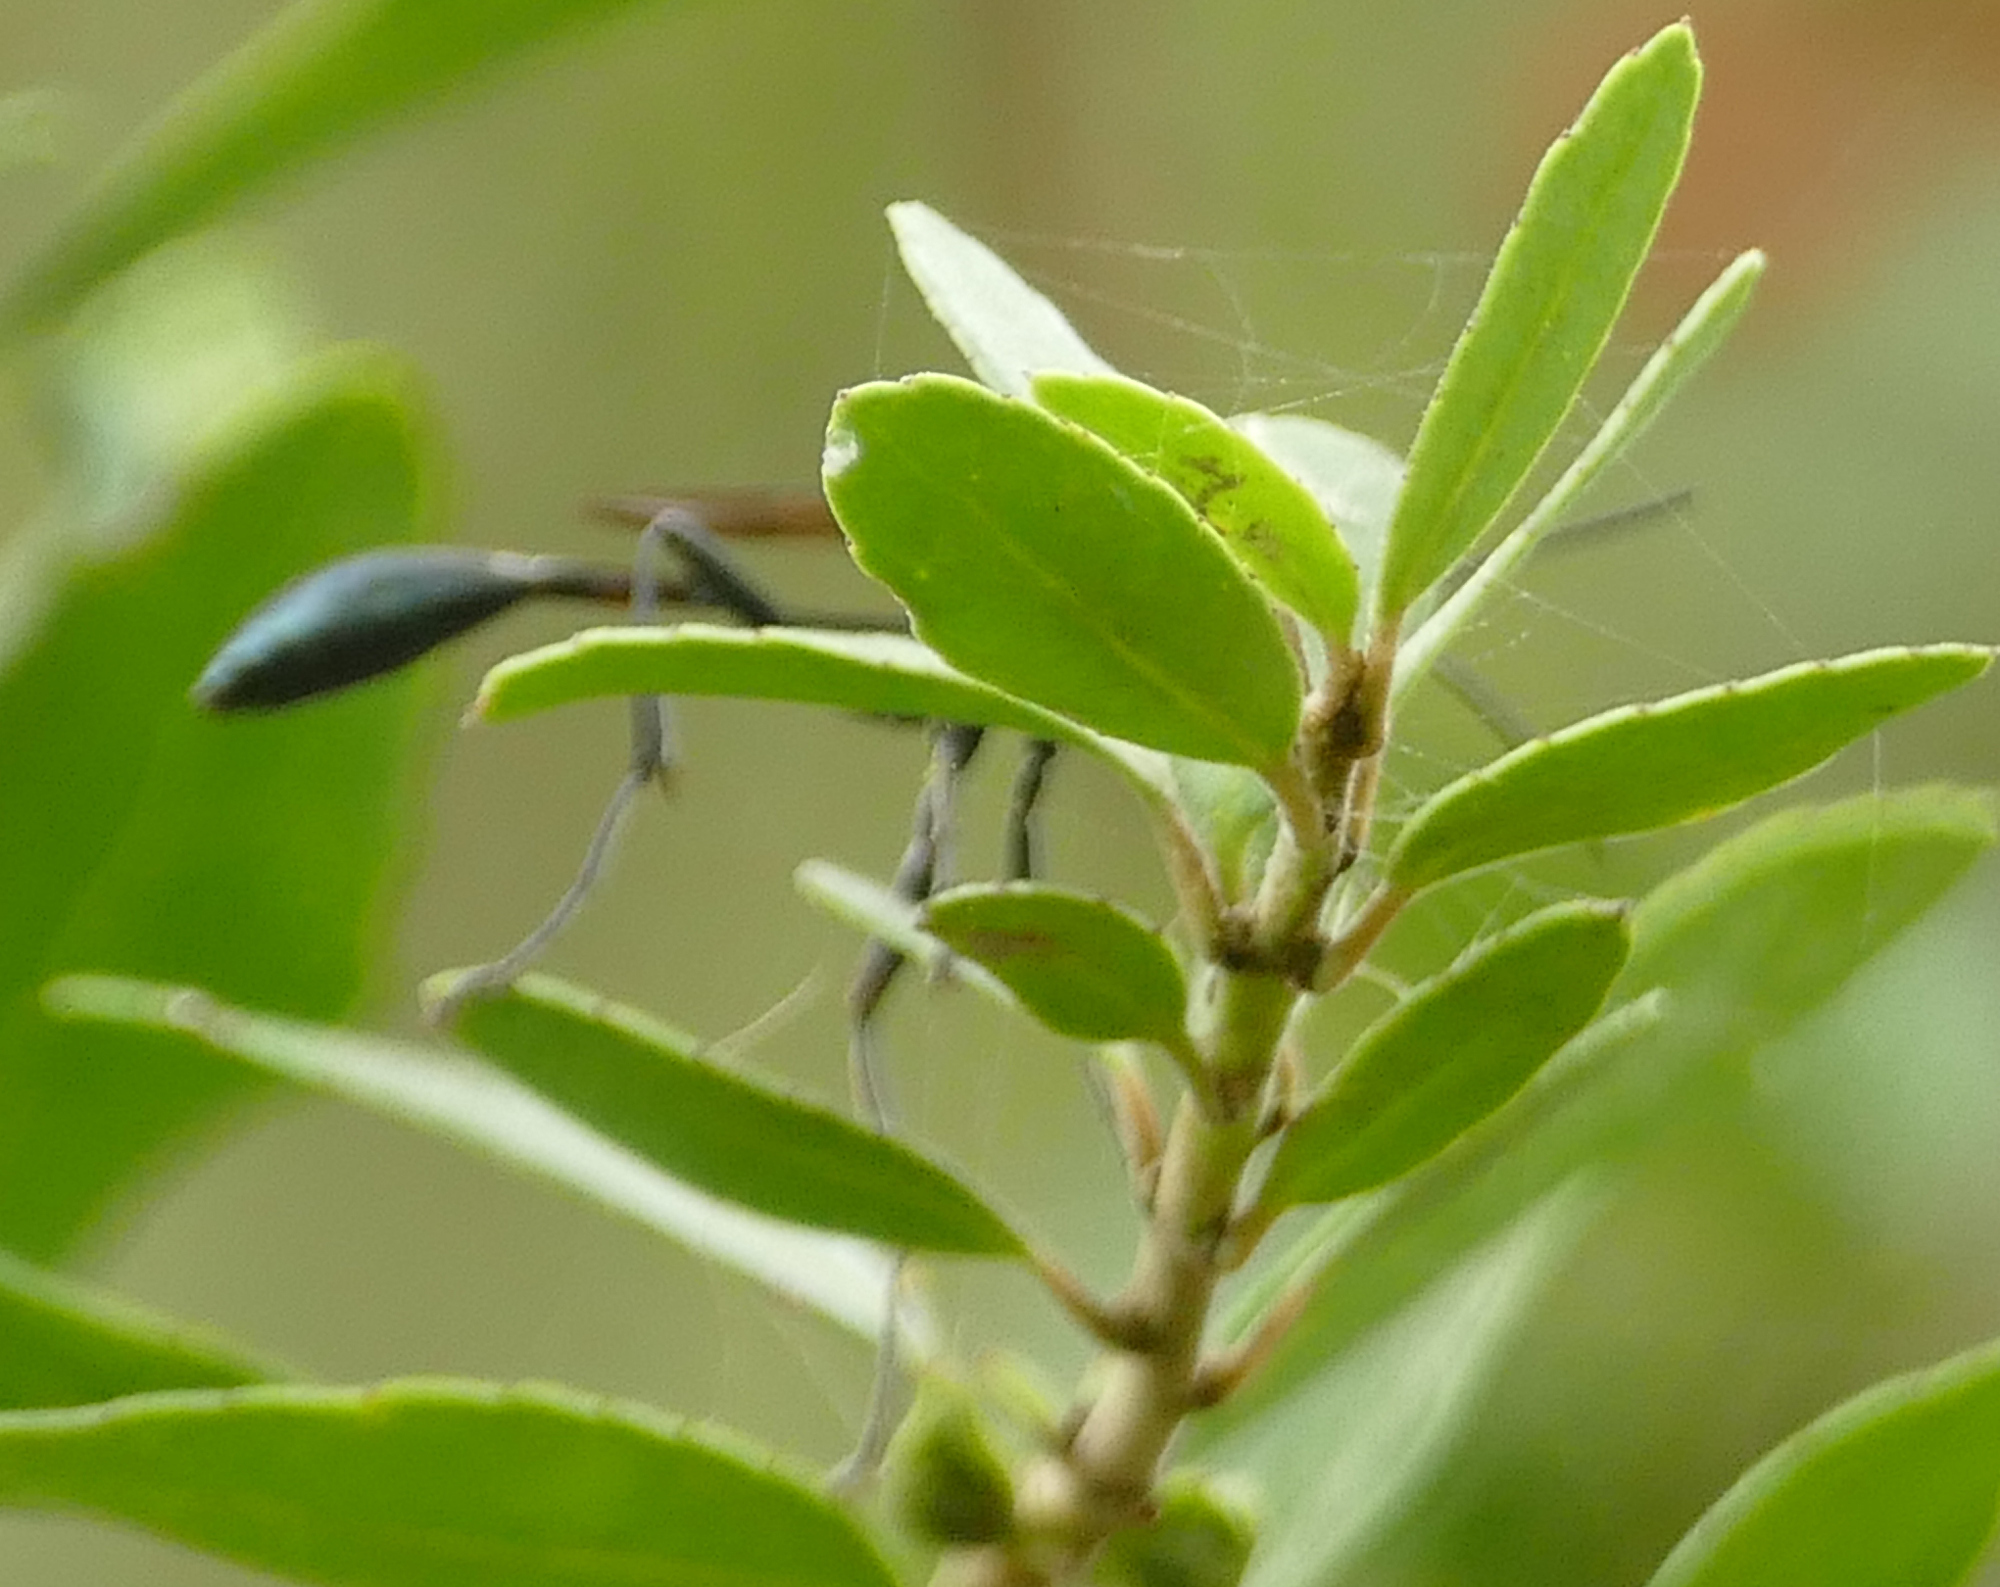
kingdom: Animalia
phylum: Arthropoda
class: Insecta
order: Hymenoptera
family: Sphecidae
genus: Eremnophila
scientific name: Eremnophila aureonotata
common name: Gold-marked thread-waisted wasp
